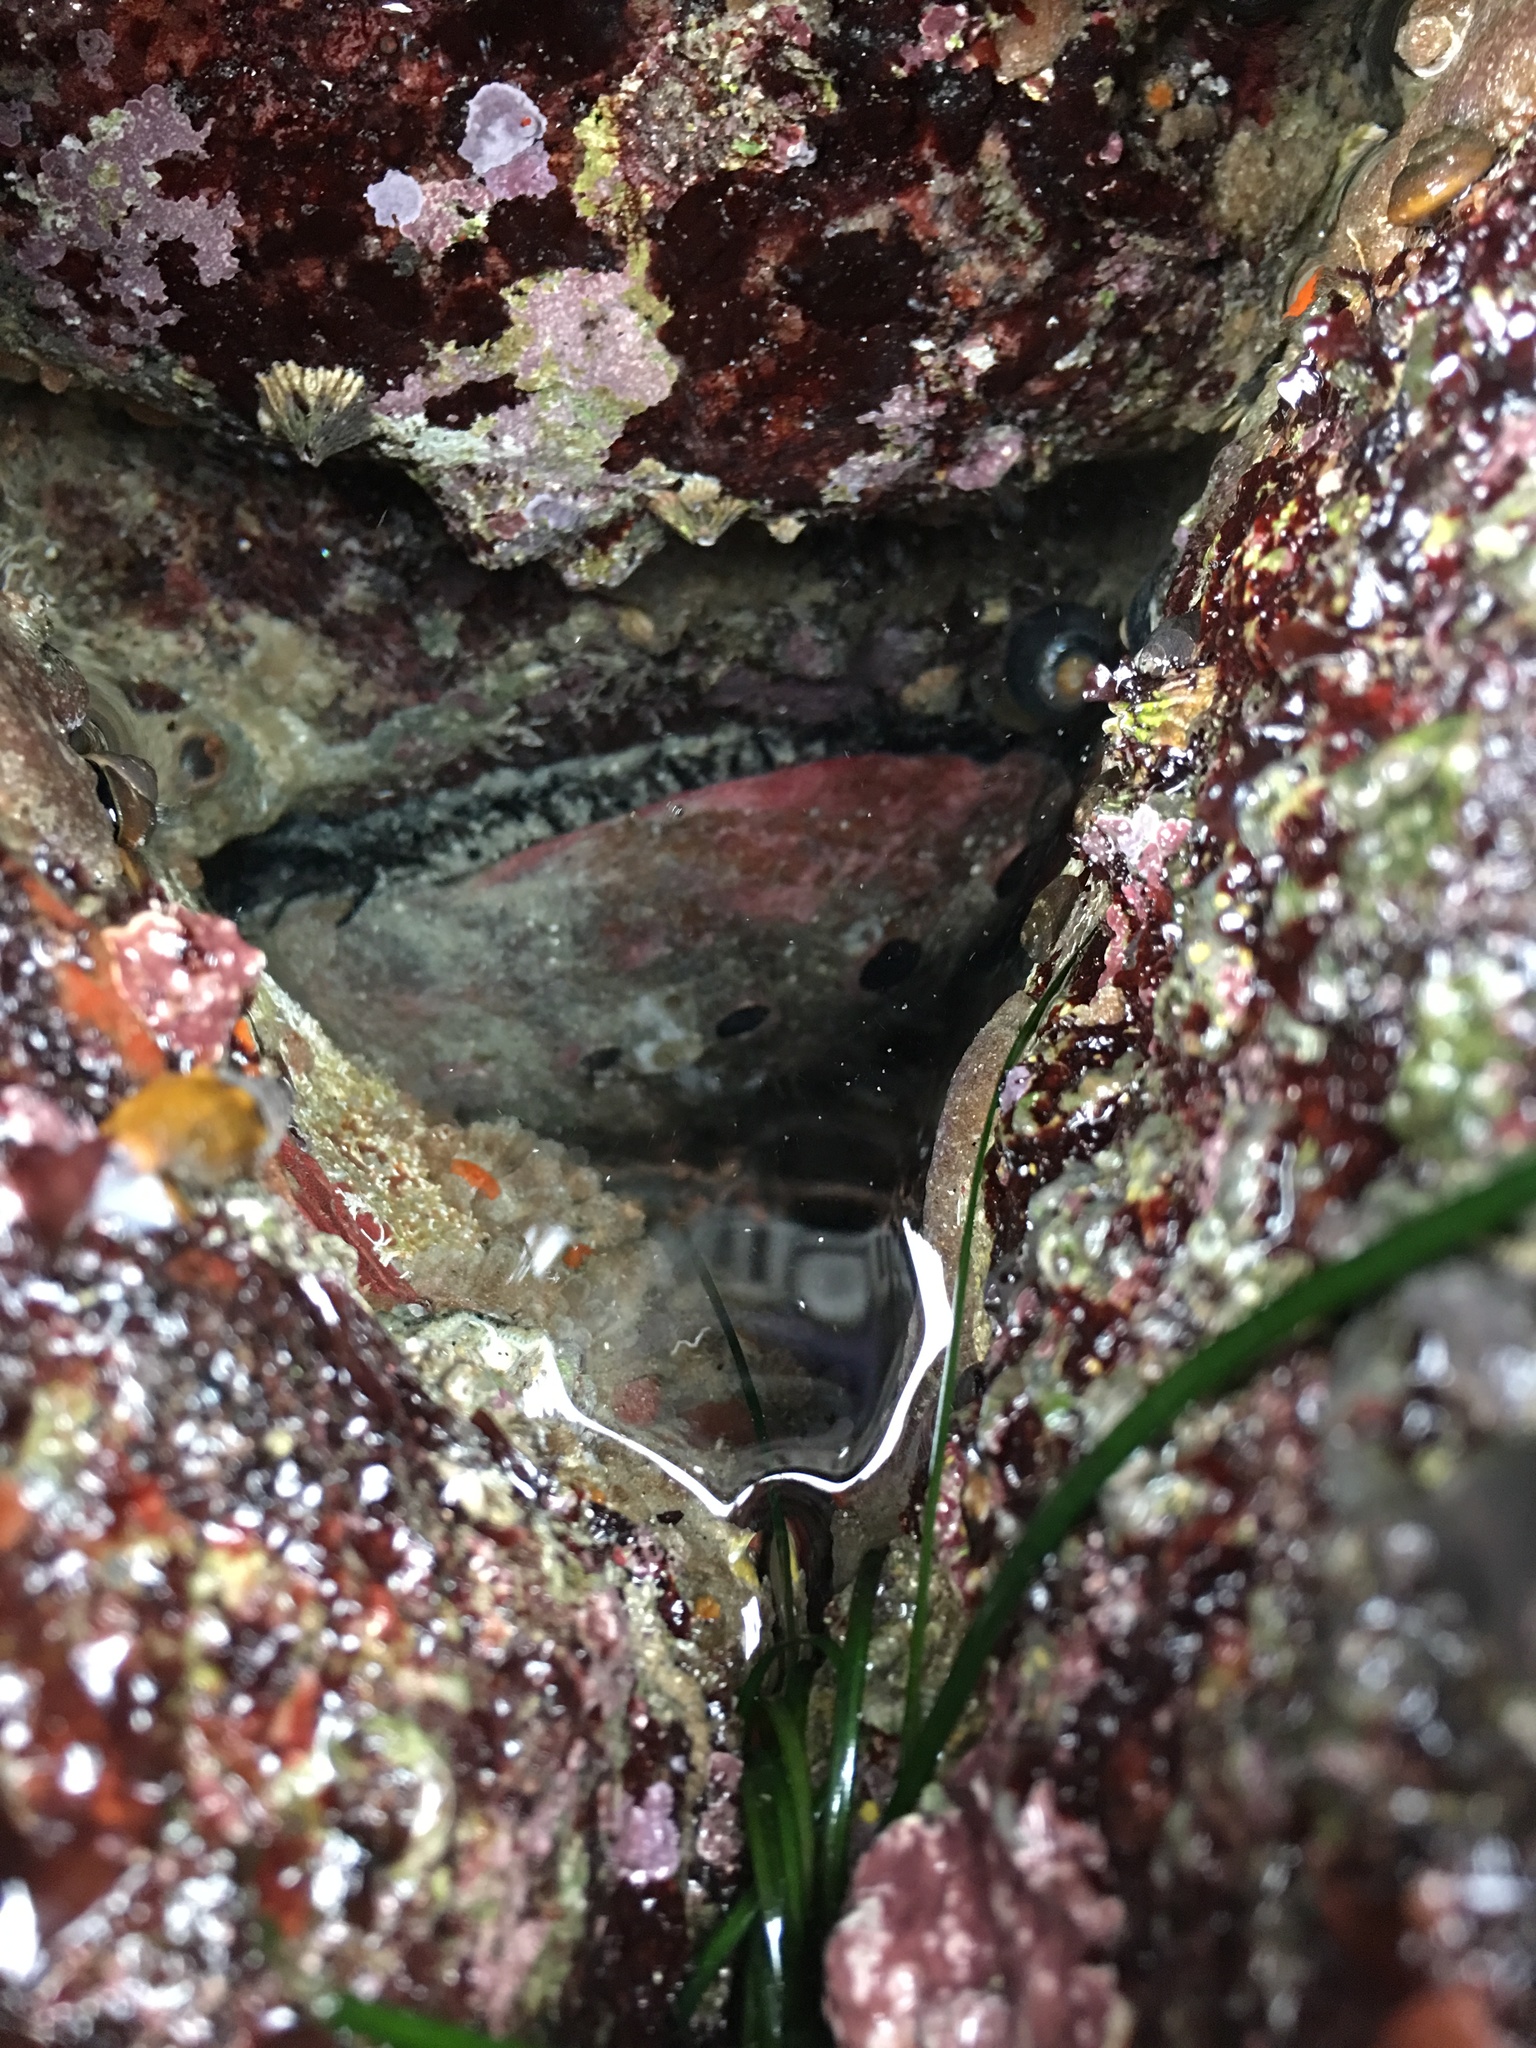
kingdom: Animalia
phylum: Mollusca
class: Gastropoda
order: Lepetellida
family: Haliotidae
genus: Haliotis
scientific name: Haliotis rufescens
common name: Red abalone
